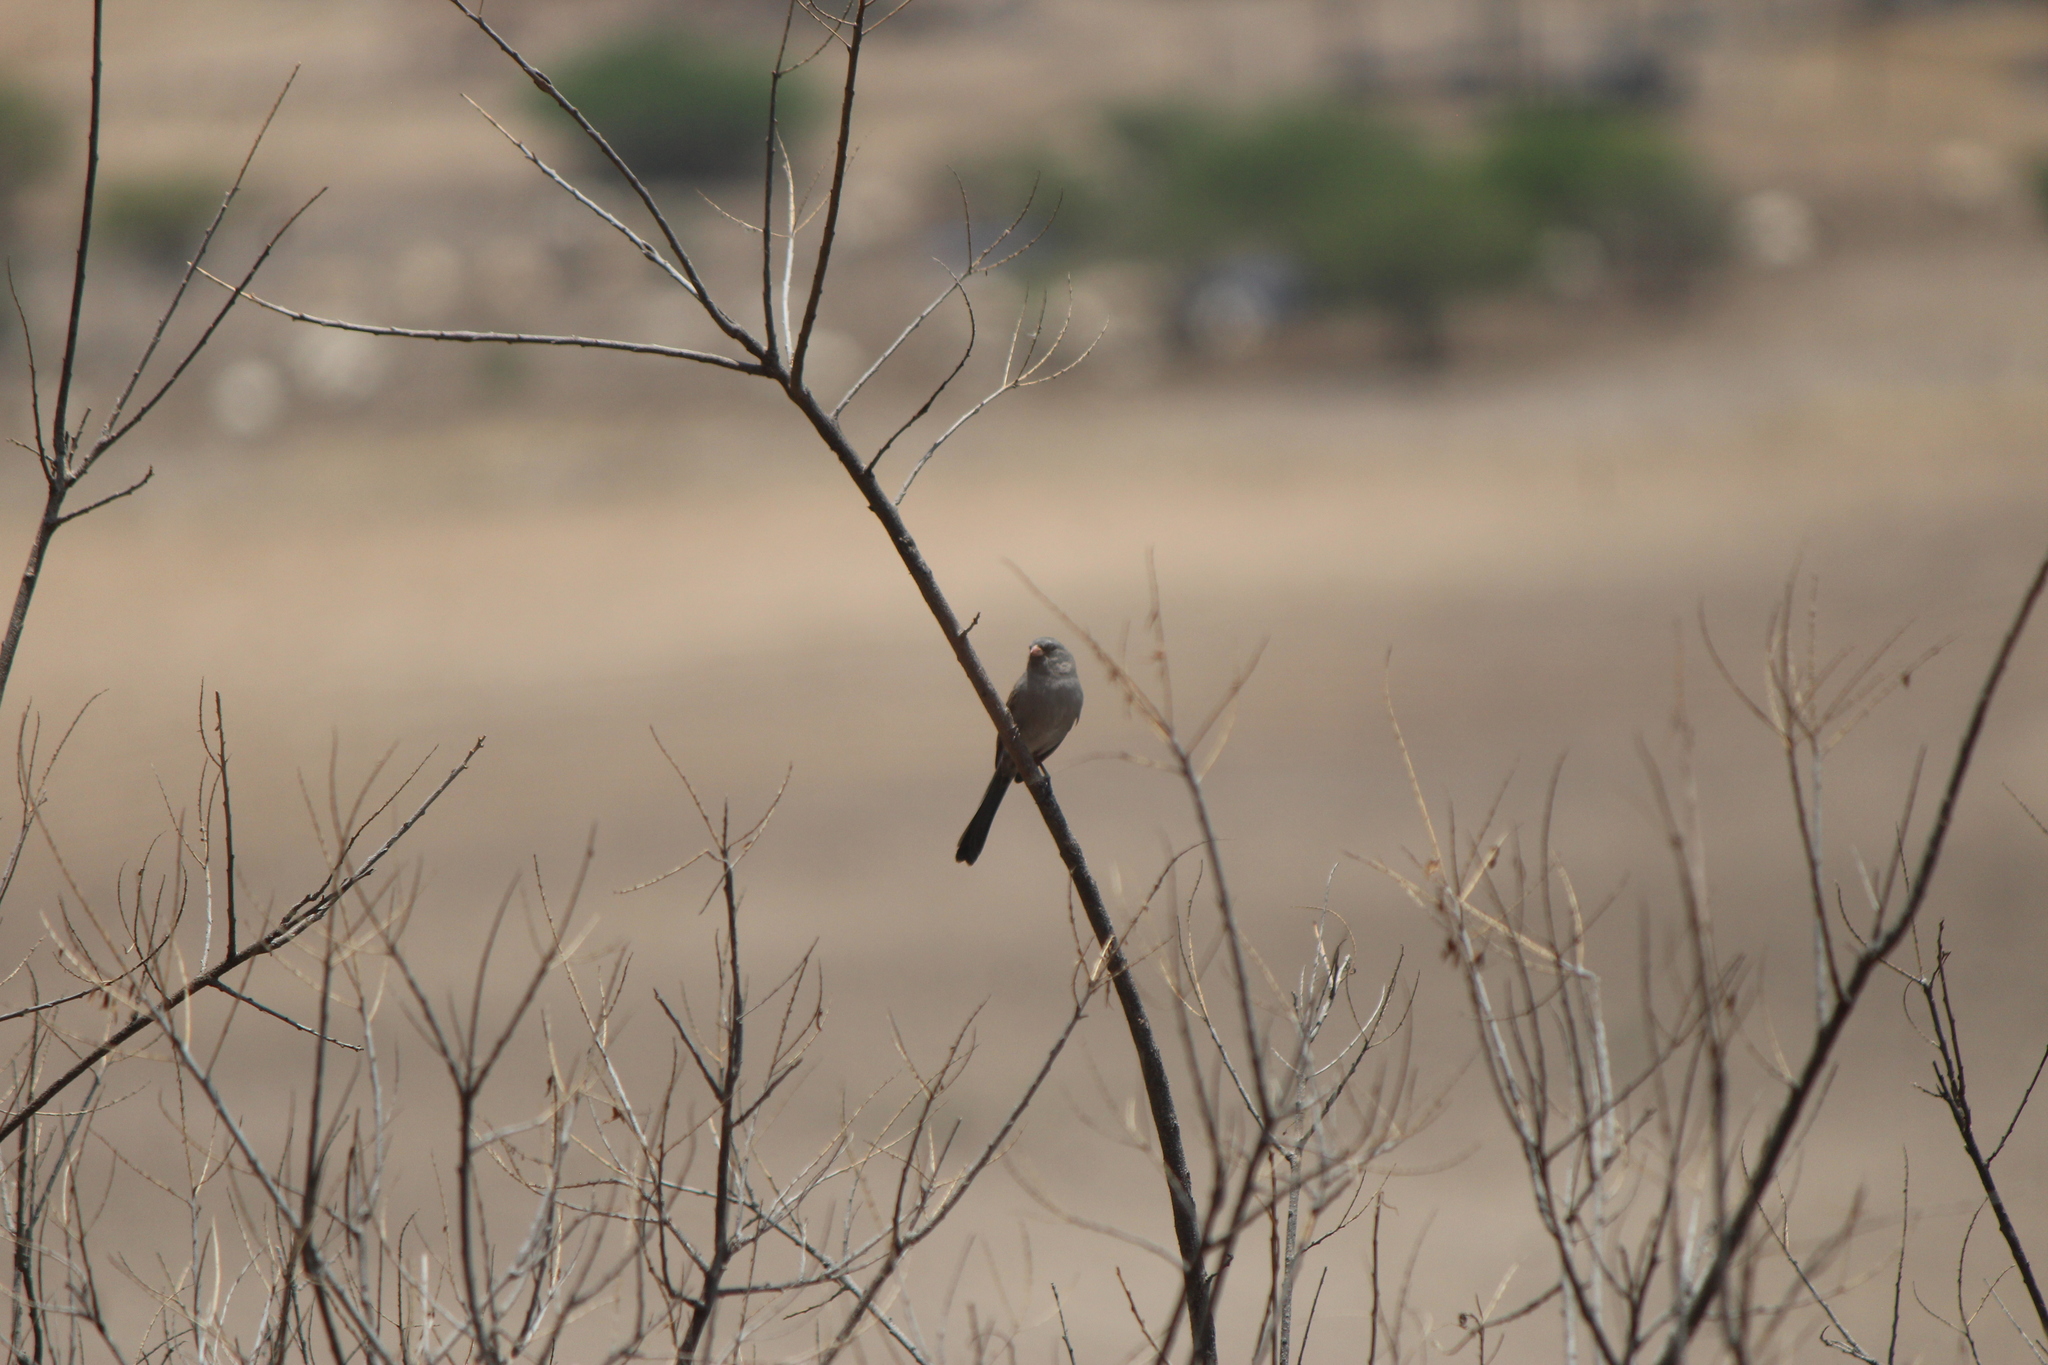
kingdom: Animalia
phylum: Chordata
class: Aves
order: Passeriformes
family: Passerellidae
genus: Spizella
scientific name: Spizella atrogularis
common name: Black-chinned sparrow
